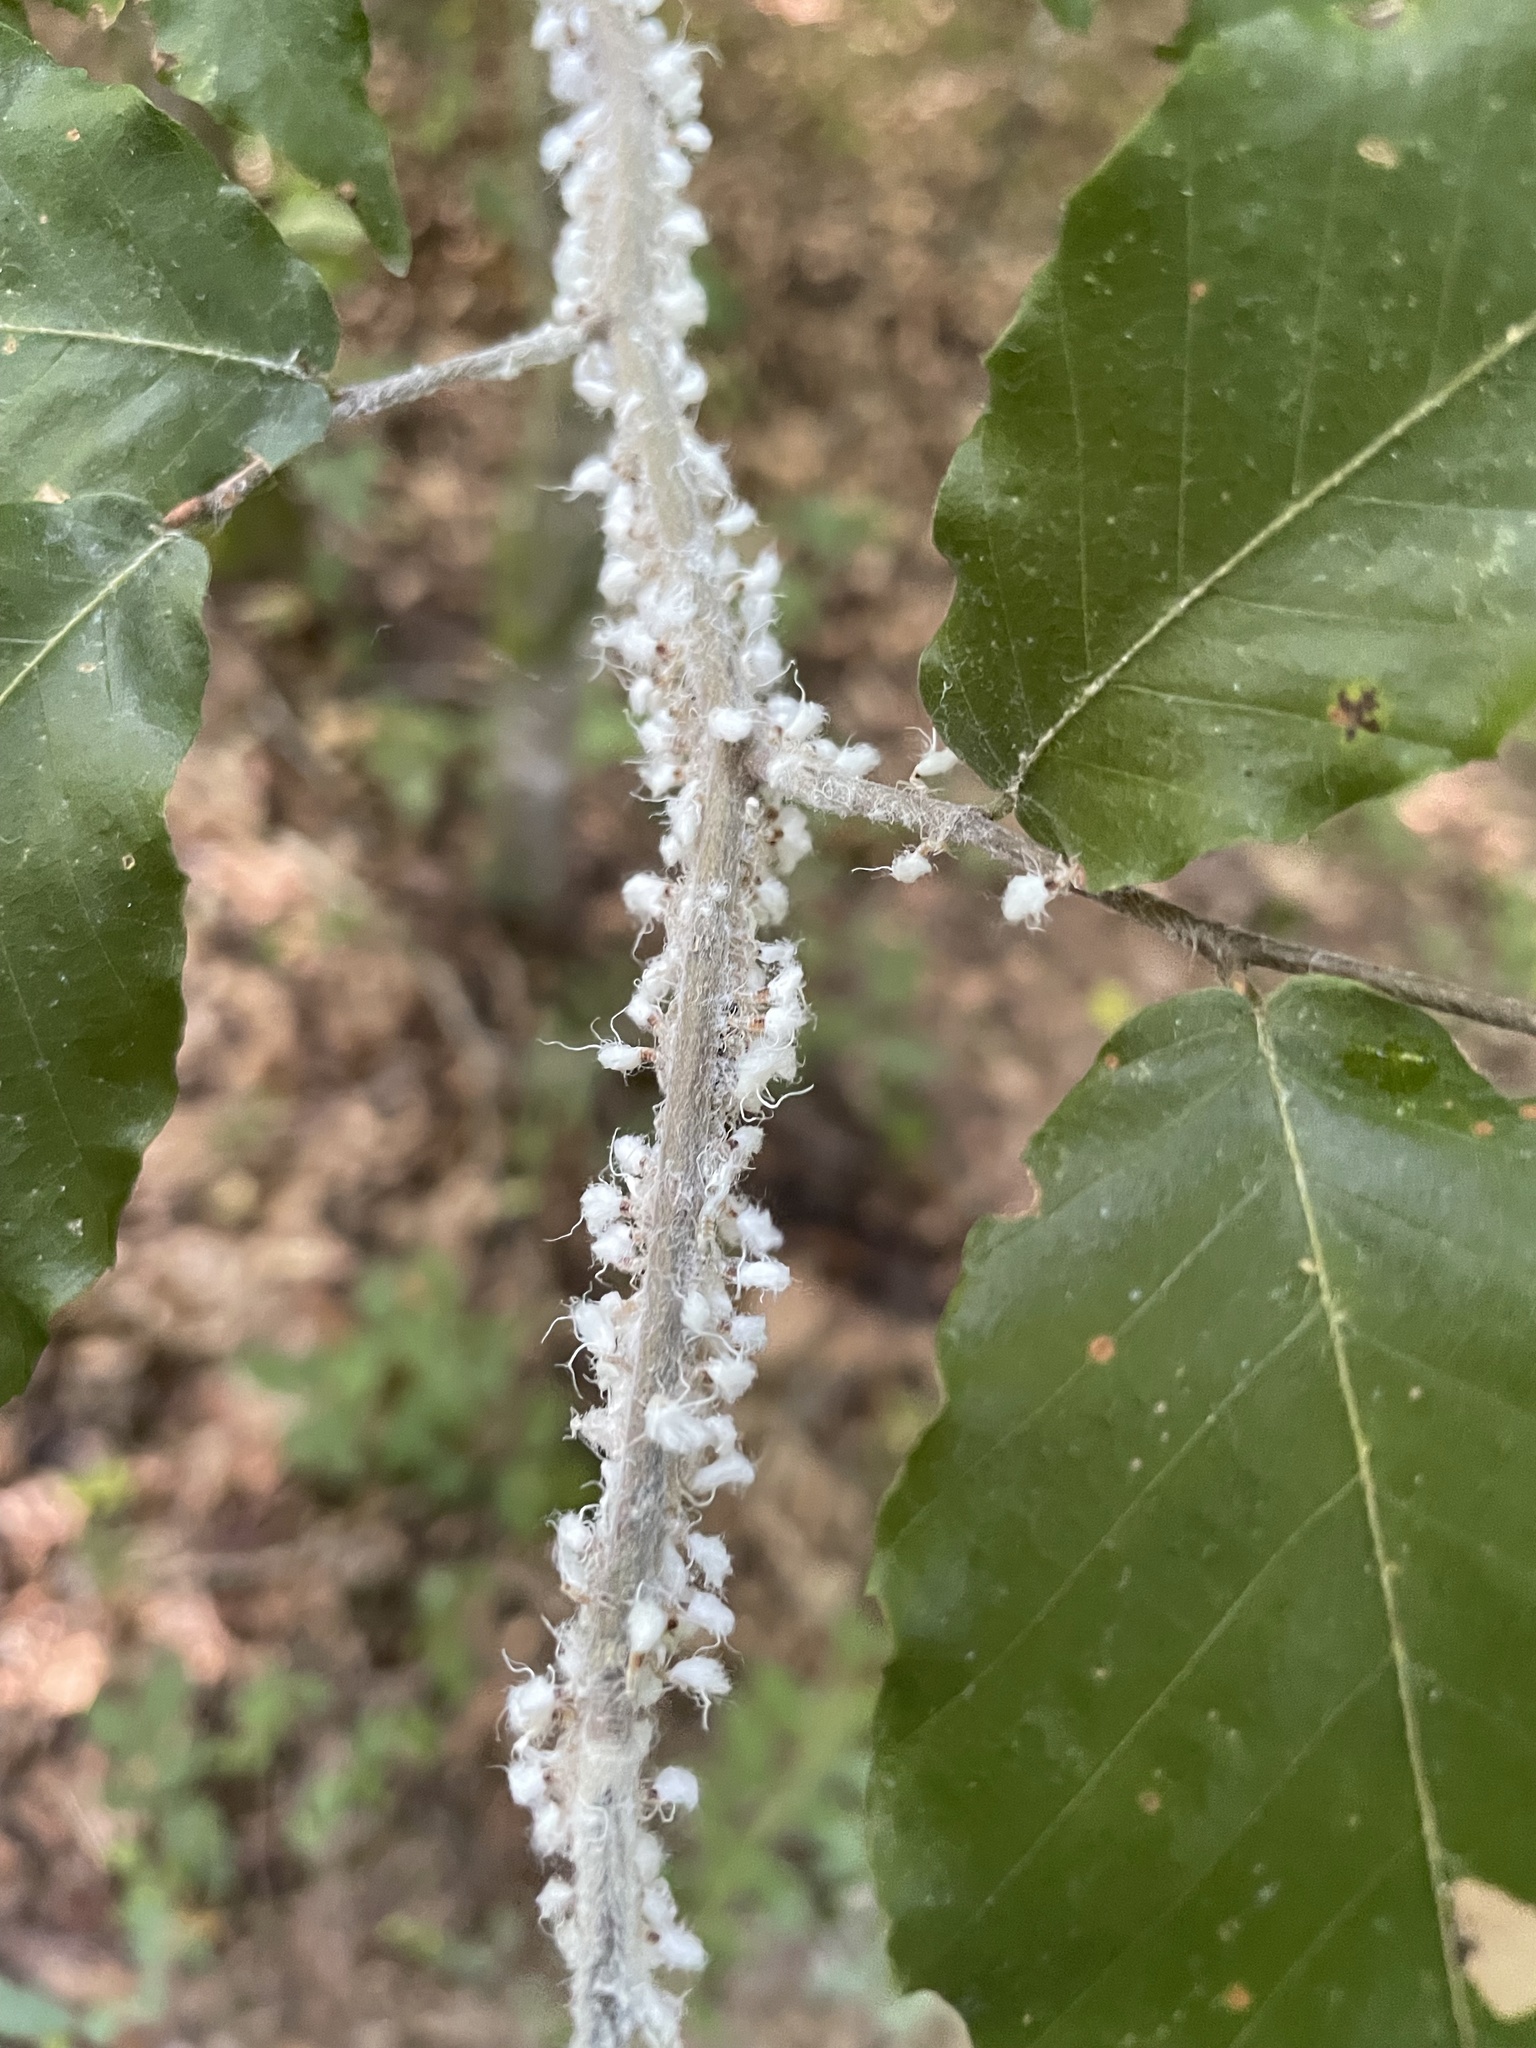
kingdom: Animalia
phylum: Arthropoda
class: Insecta
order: Hemiptera
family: Aphididae
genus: Grylloprociphilus
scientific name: Grylloprociphilus imbricator
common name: Beech blight aphid
